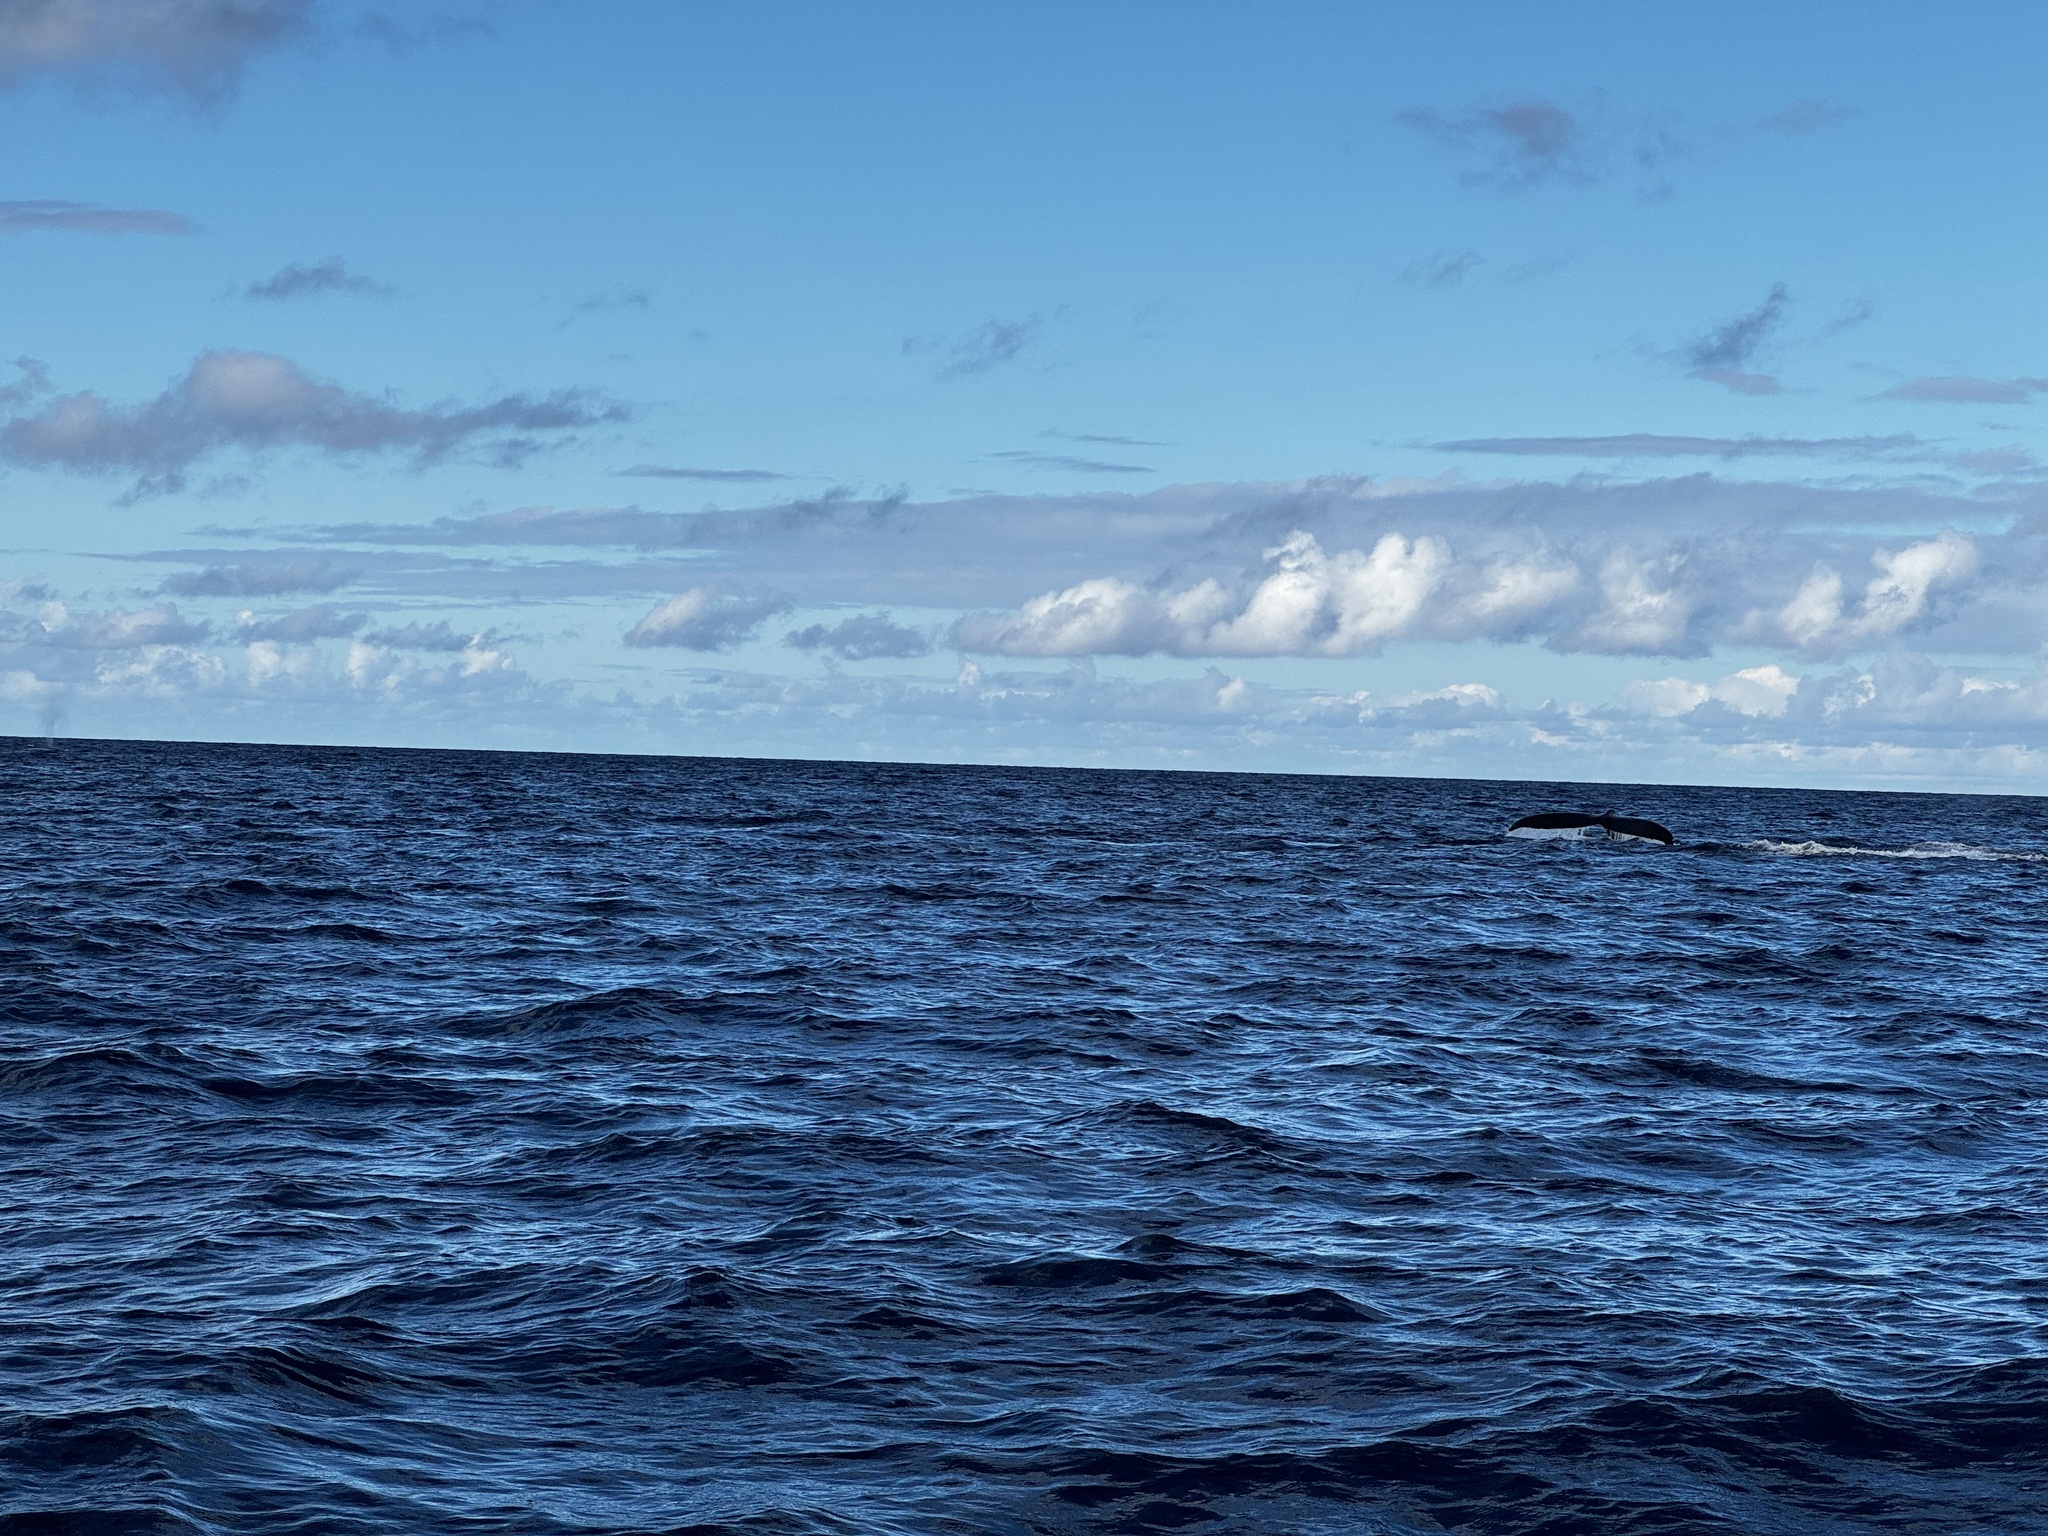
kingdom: Animalia
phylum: Chordata
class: Mammalia
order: Cetacea
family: Balaenopteridae
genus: Megaptera
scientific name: Megaptera novaeangliae
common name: Humpback whale
